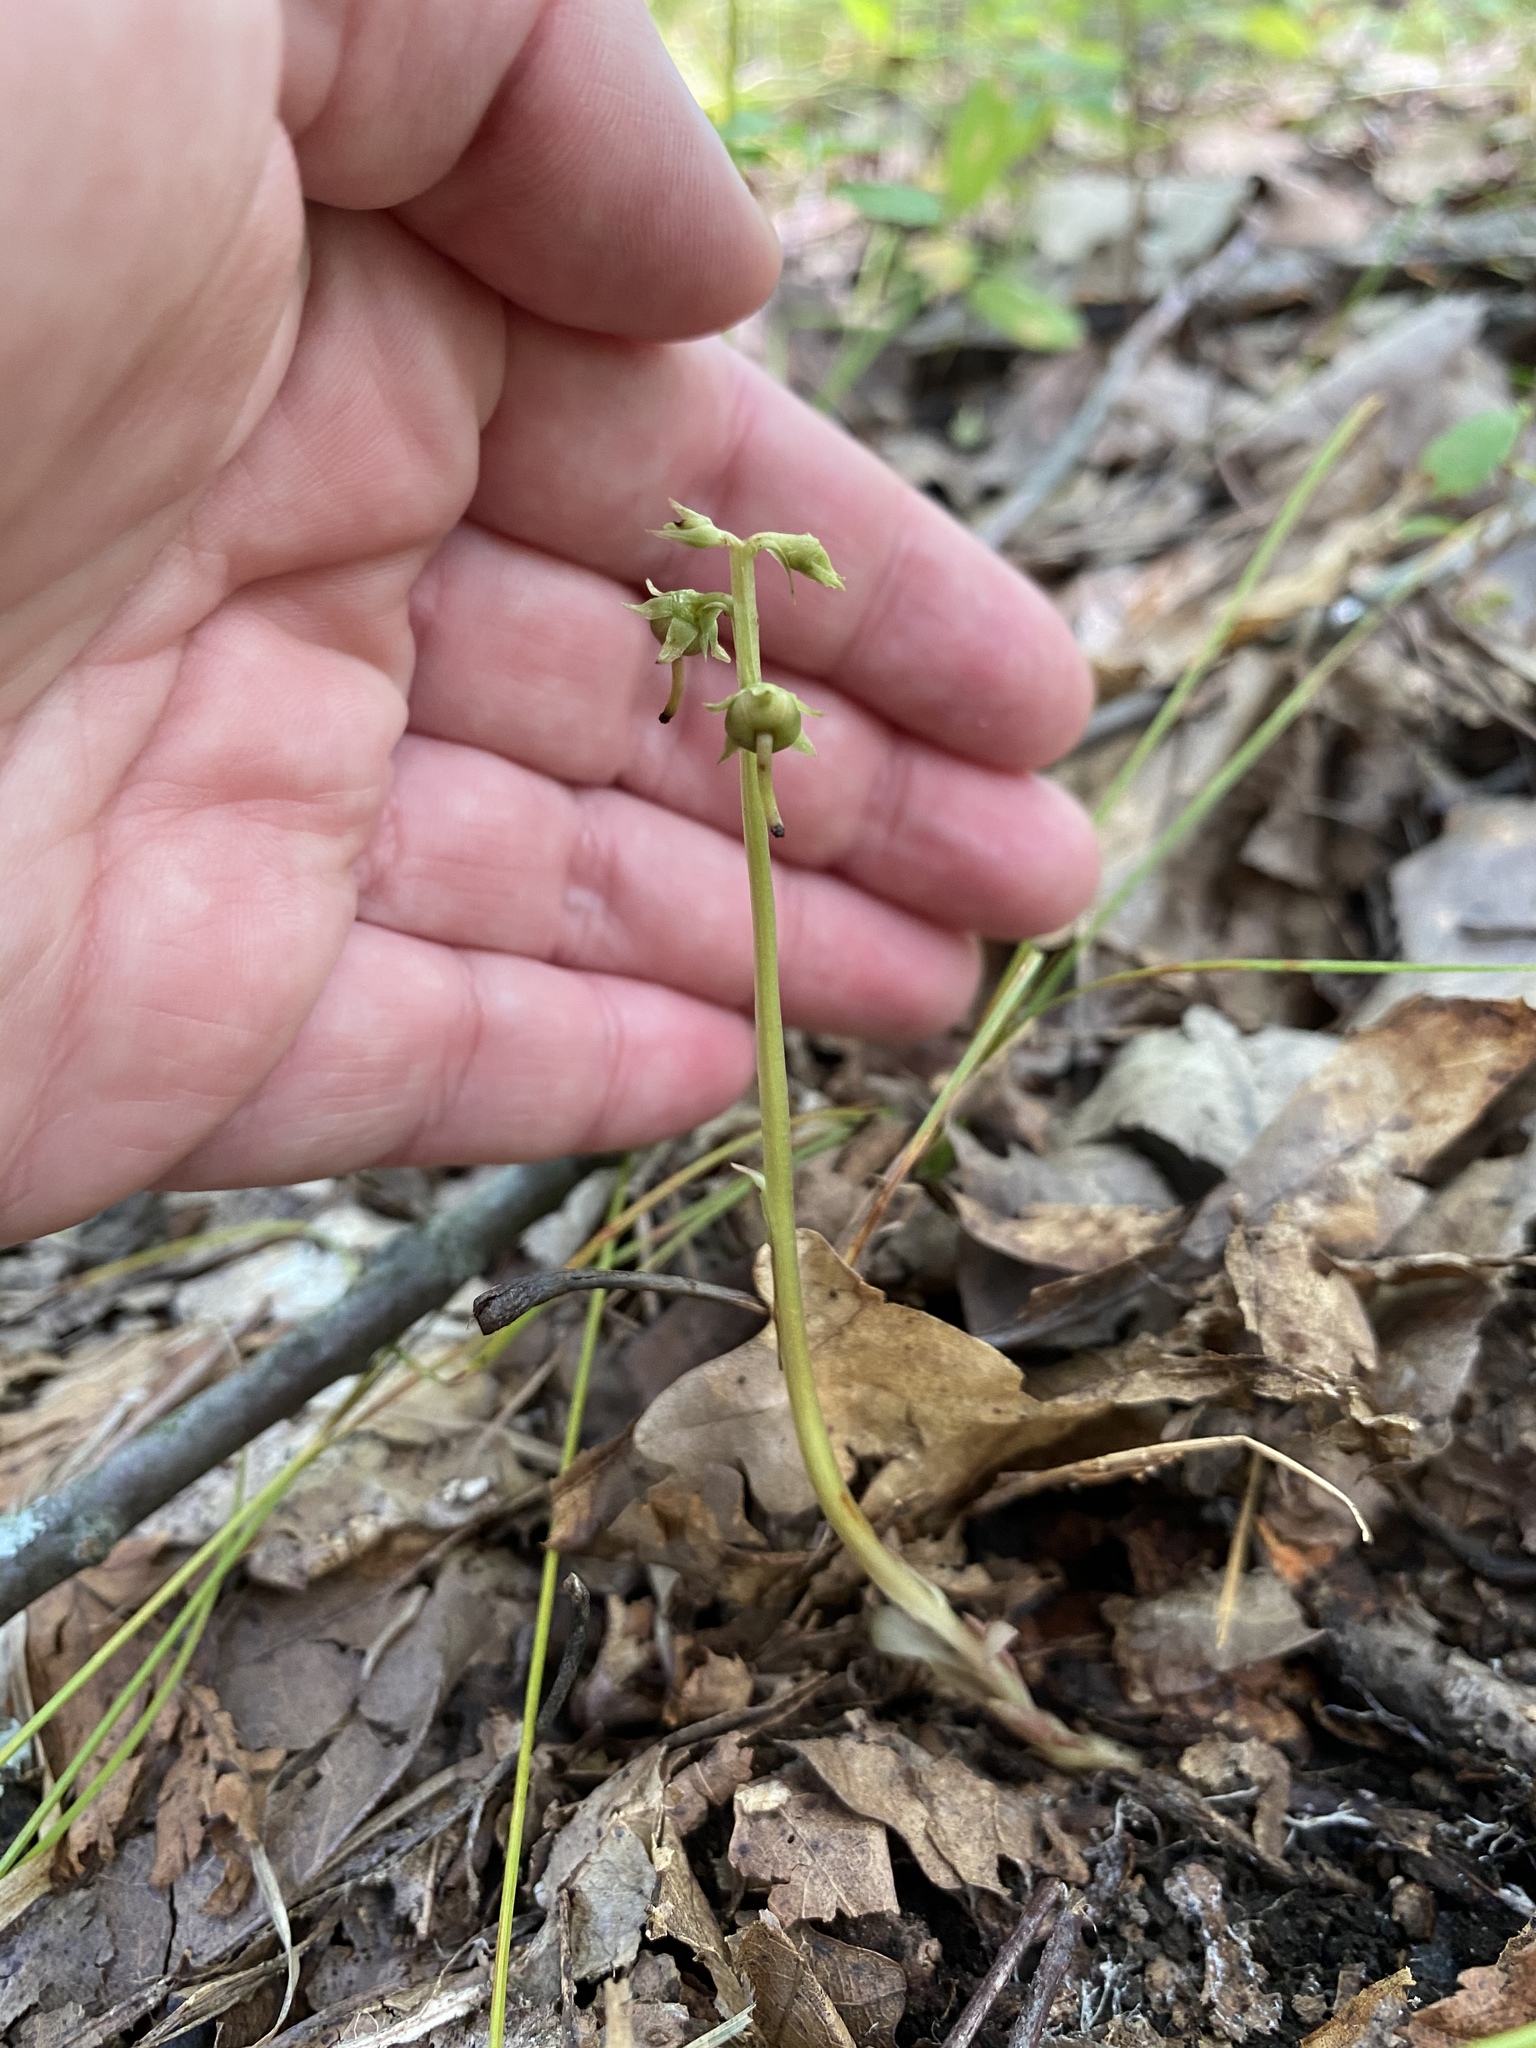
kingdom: Plantae
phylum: Tracheophyta
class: Magnoliopsida
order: Ericales
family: Ericaceae
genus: Pyrola
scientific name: Pyrola americana
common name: American wintergreen
